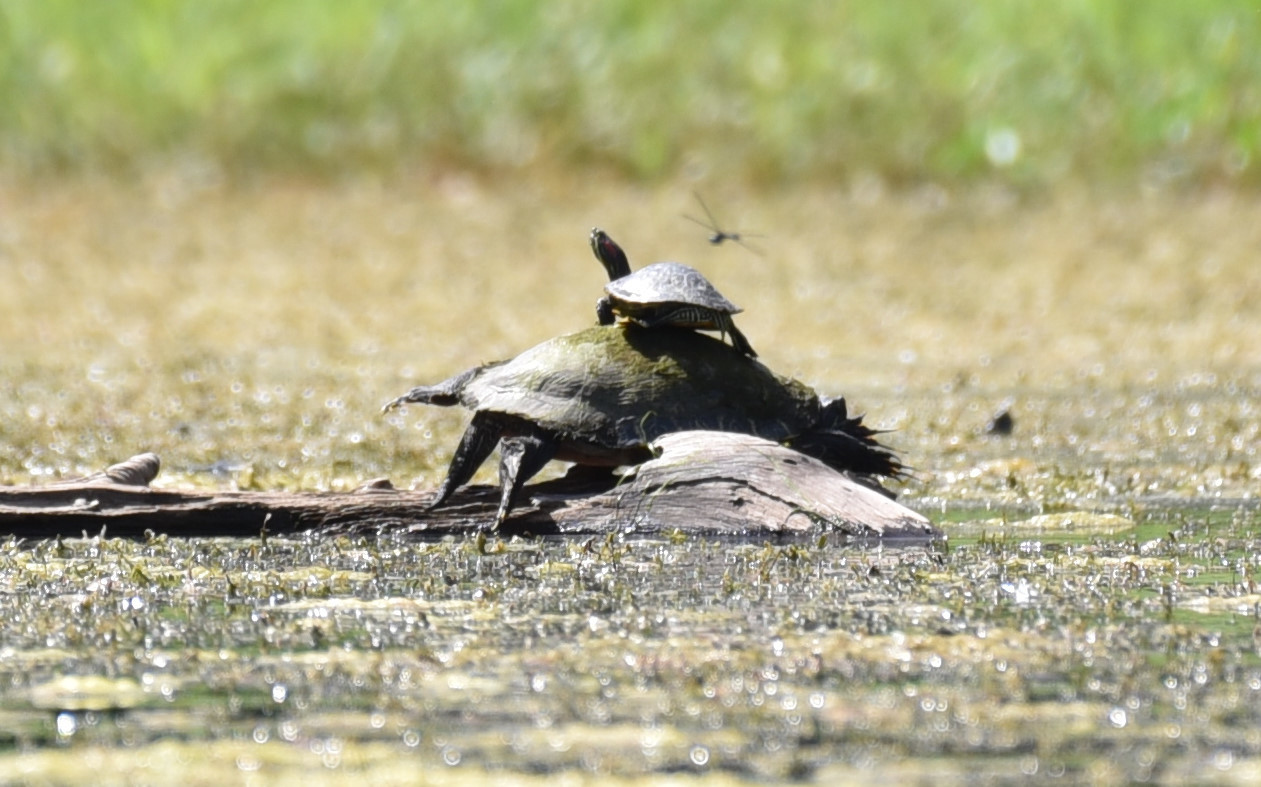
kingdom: Animalia
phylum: Chordata
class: Testudines
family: Emydidae
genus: Trachemys
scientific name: Trachemys scripta
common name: Slider
